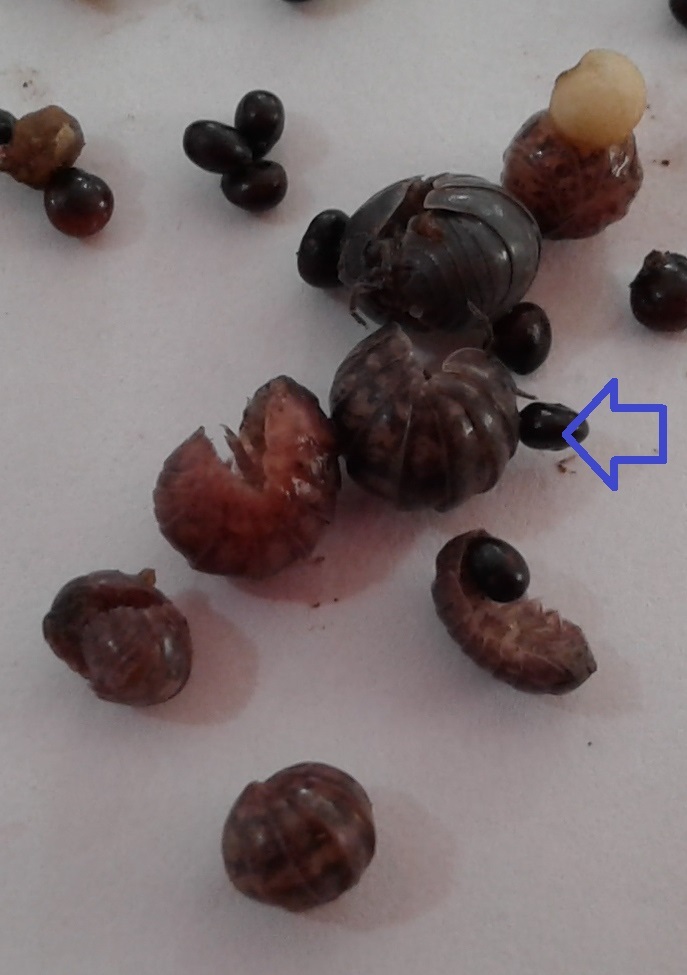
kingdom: Animalia
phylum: Arthropoda
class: Malacostraca
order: Isopoda
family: Armadillidiidae
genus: Armadillidium
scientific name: Armadillidium vulgare
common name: Common pill woodlouse
